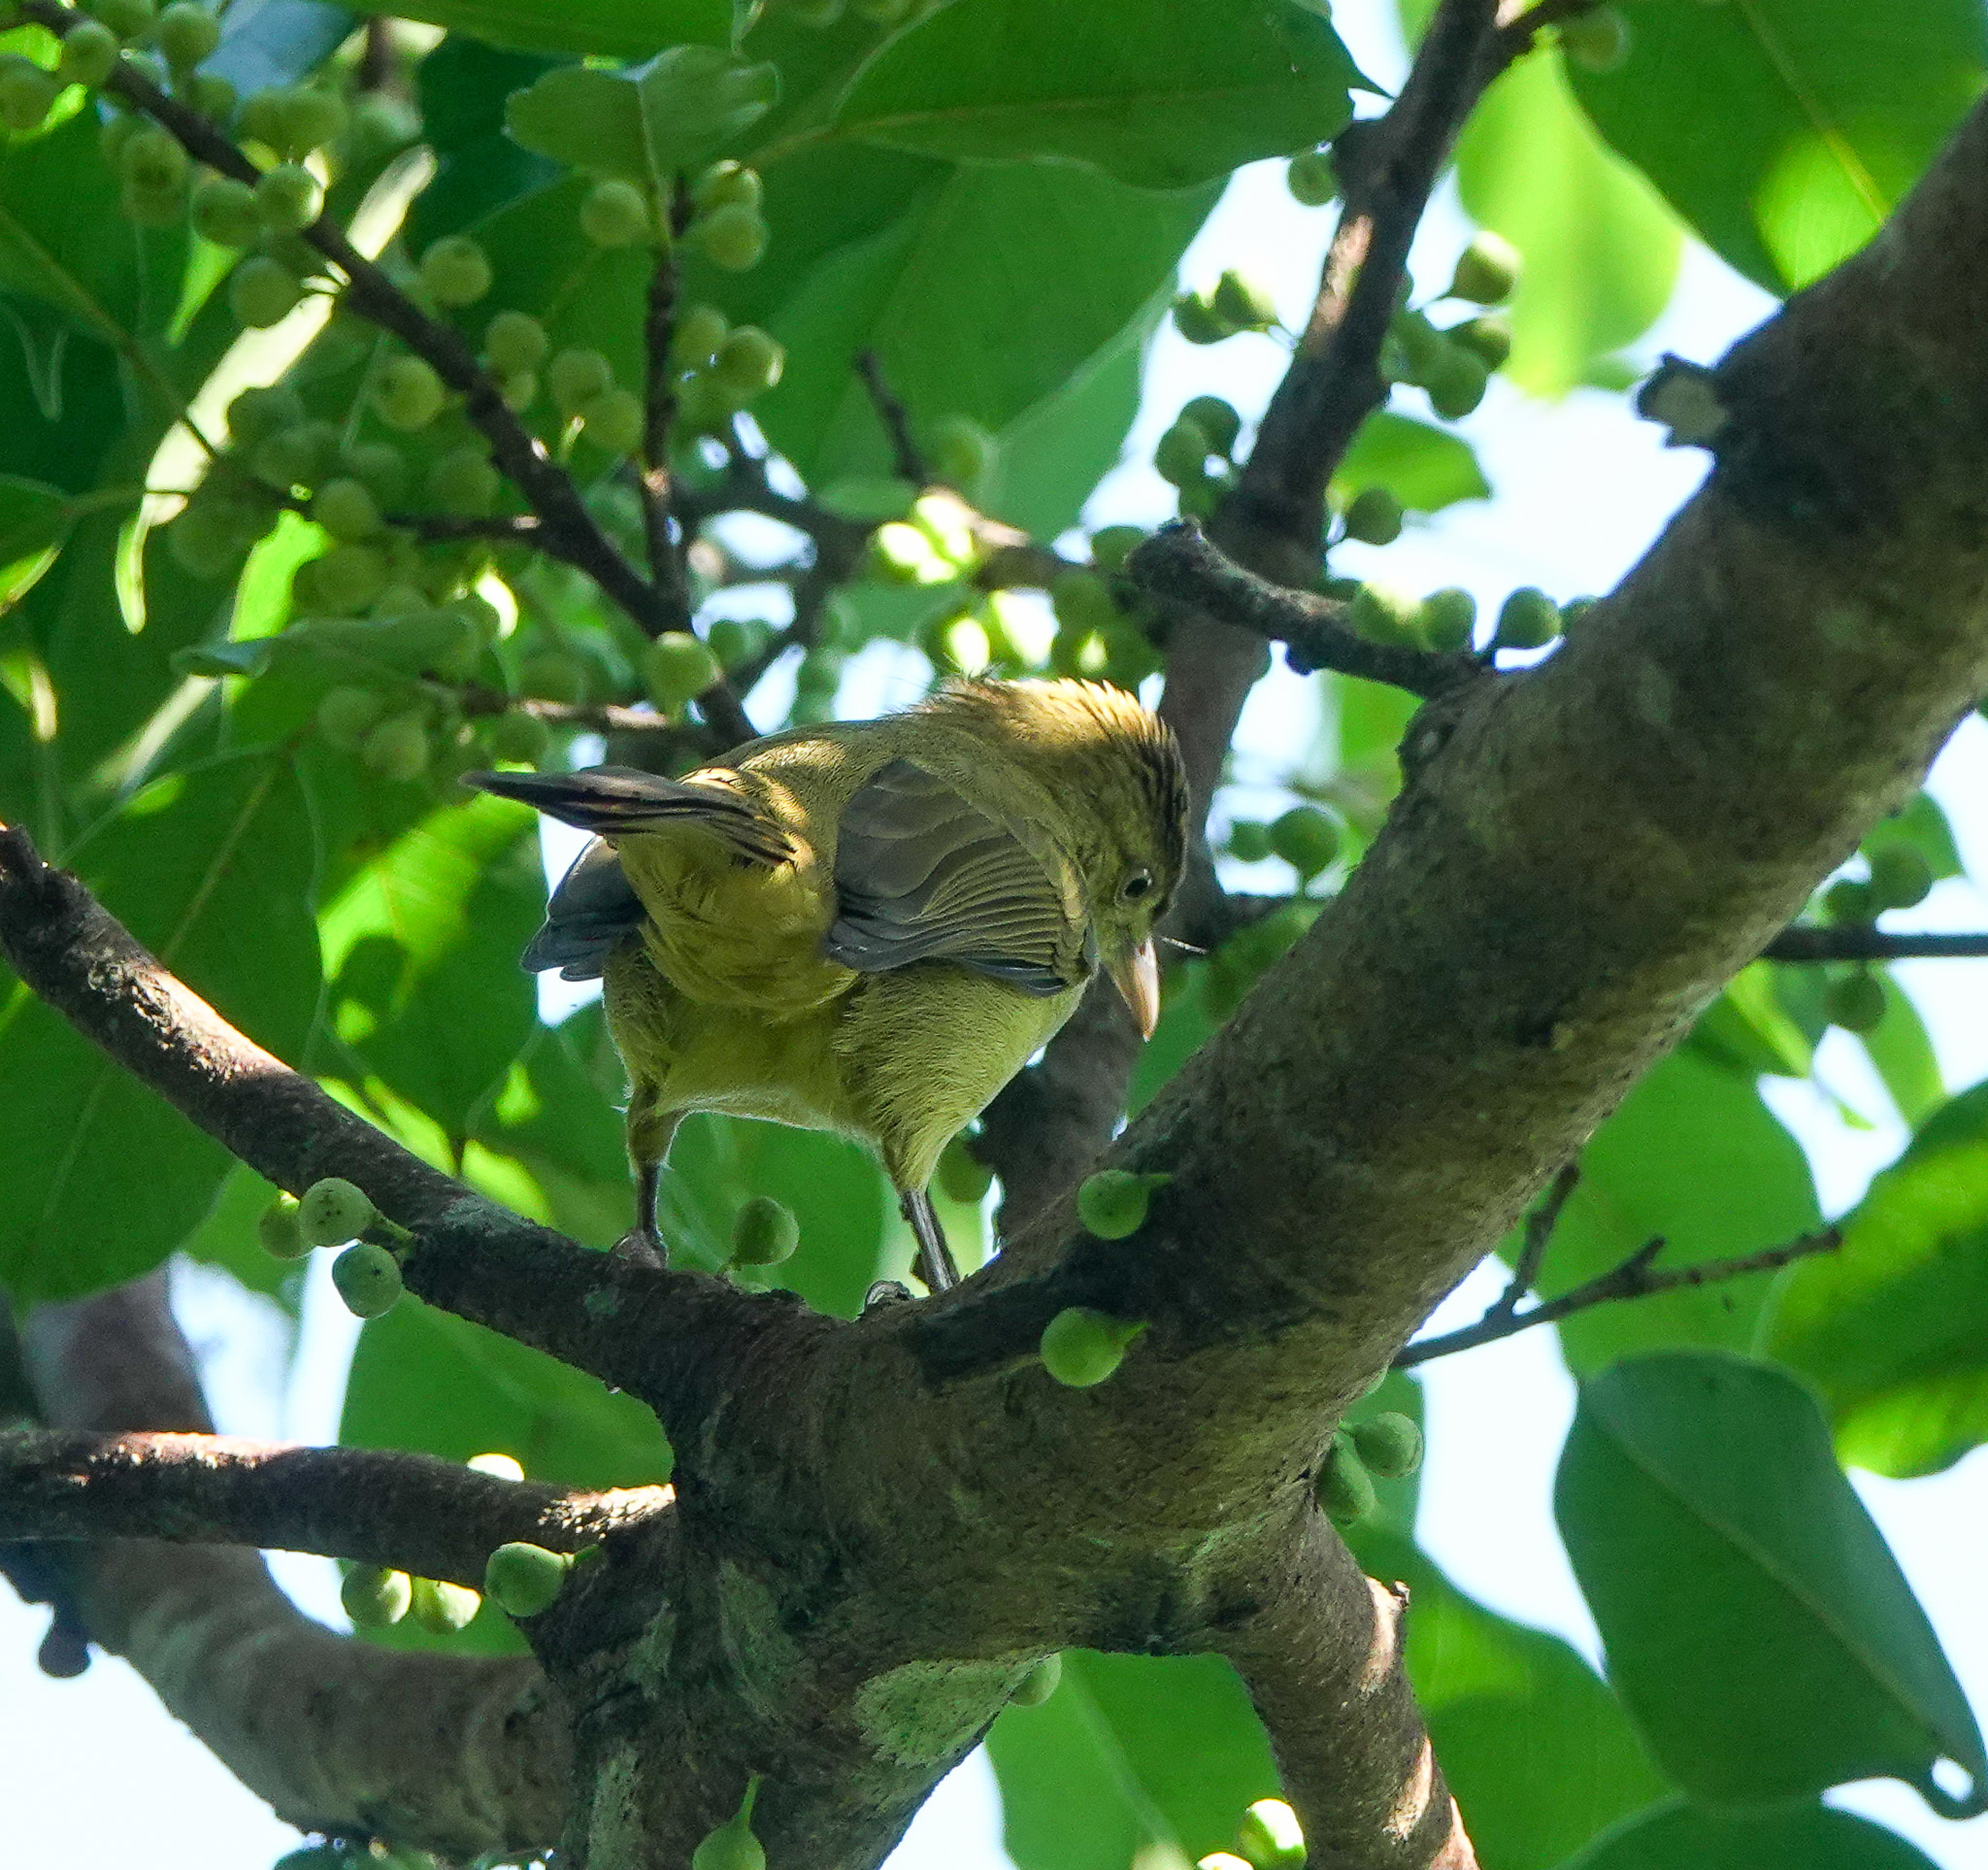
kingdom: Animalia
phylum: Chordata
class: Aves
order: Passeriformes
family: Pycnonotidae
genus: Iole
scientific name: Iole virescens
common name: Olive bulbul
